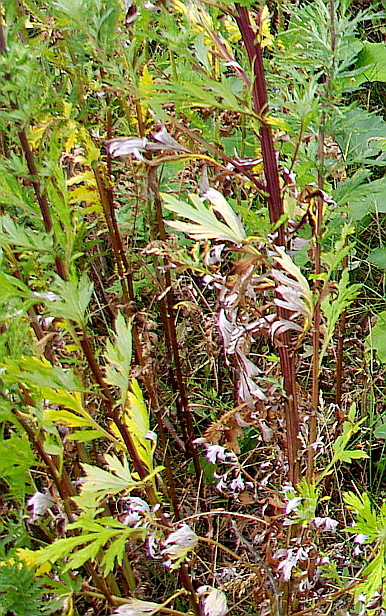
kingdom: Plantae
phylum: Tracheophyta
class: Magnoliopsida
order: Asterales
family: Asteraceae
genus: Artemisia
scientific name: Artemisia vulgaris
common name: Mugwort
